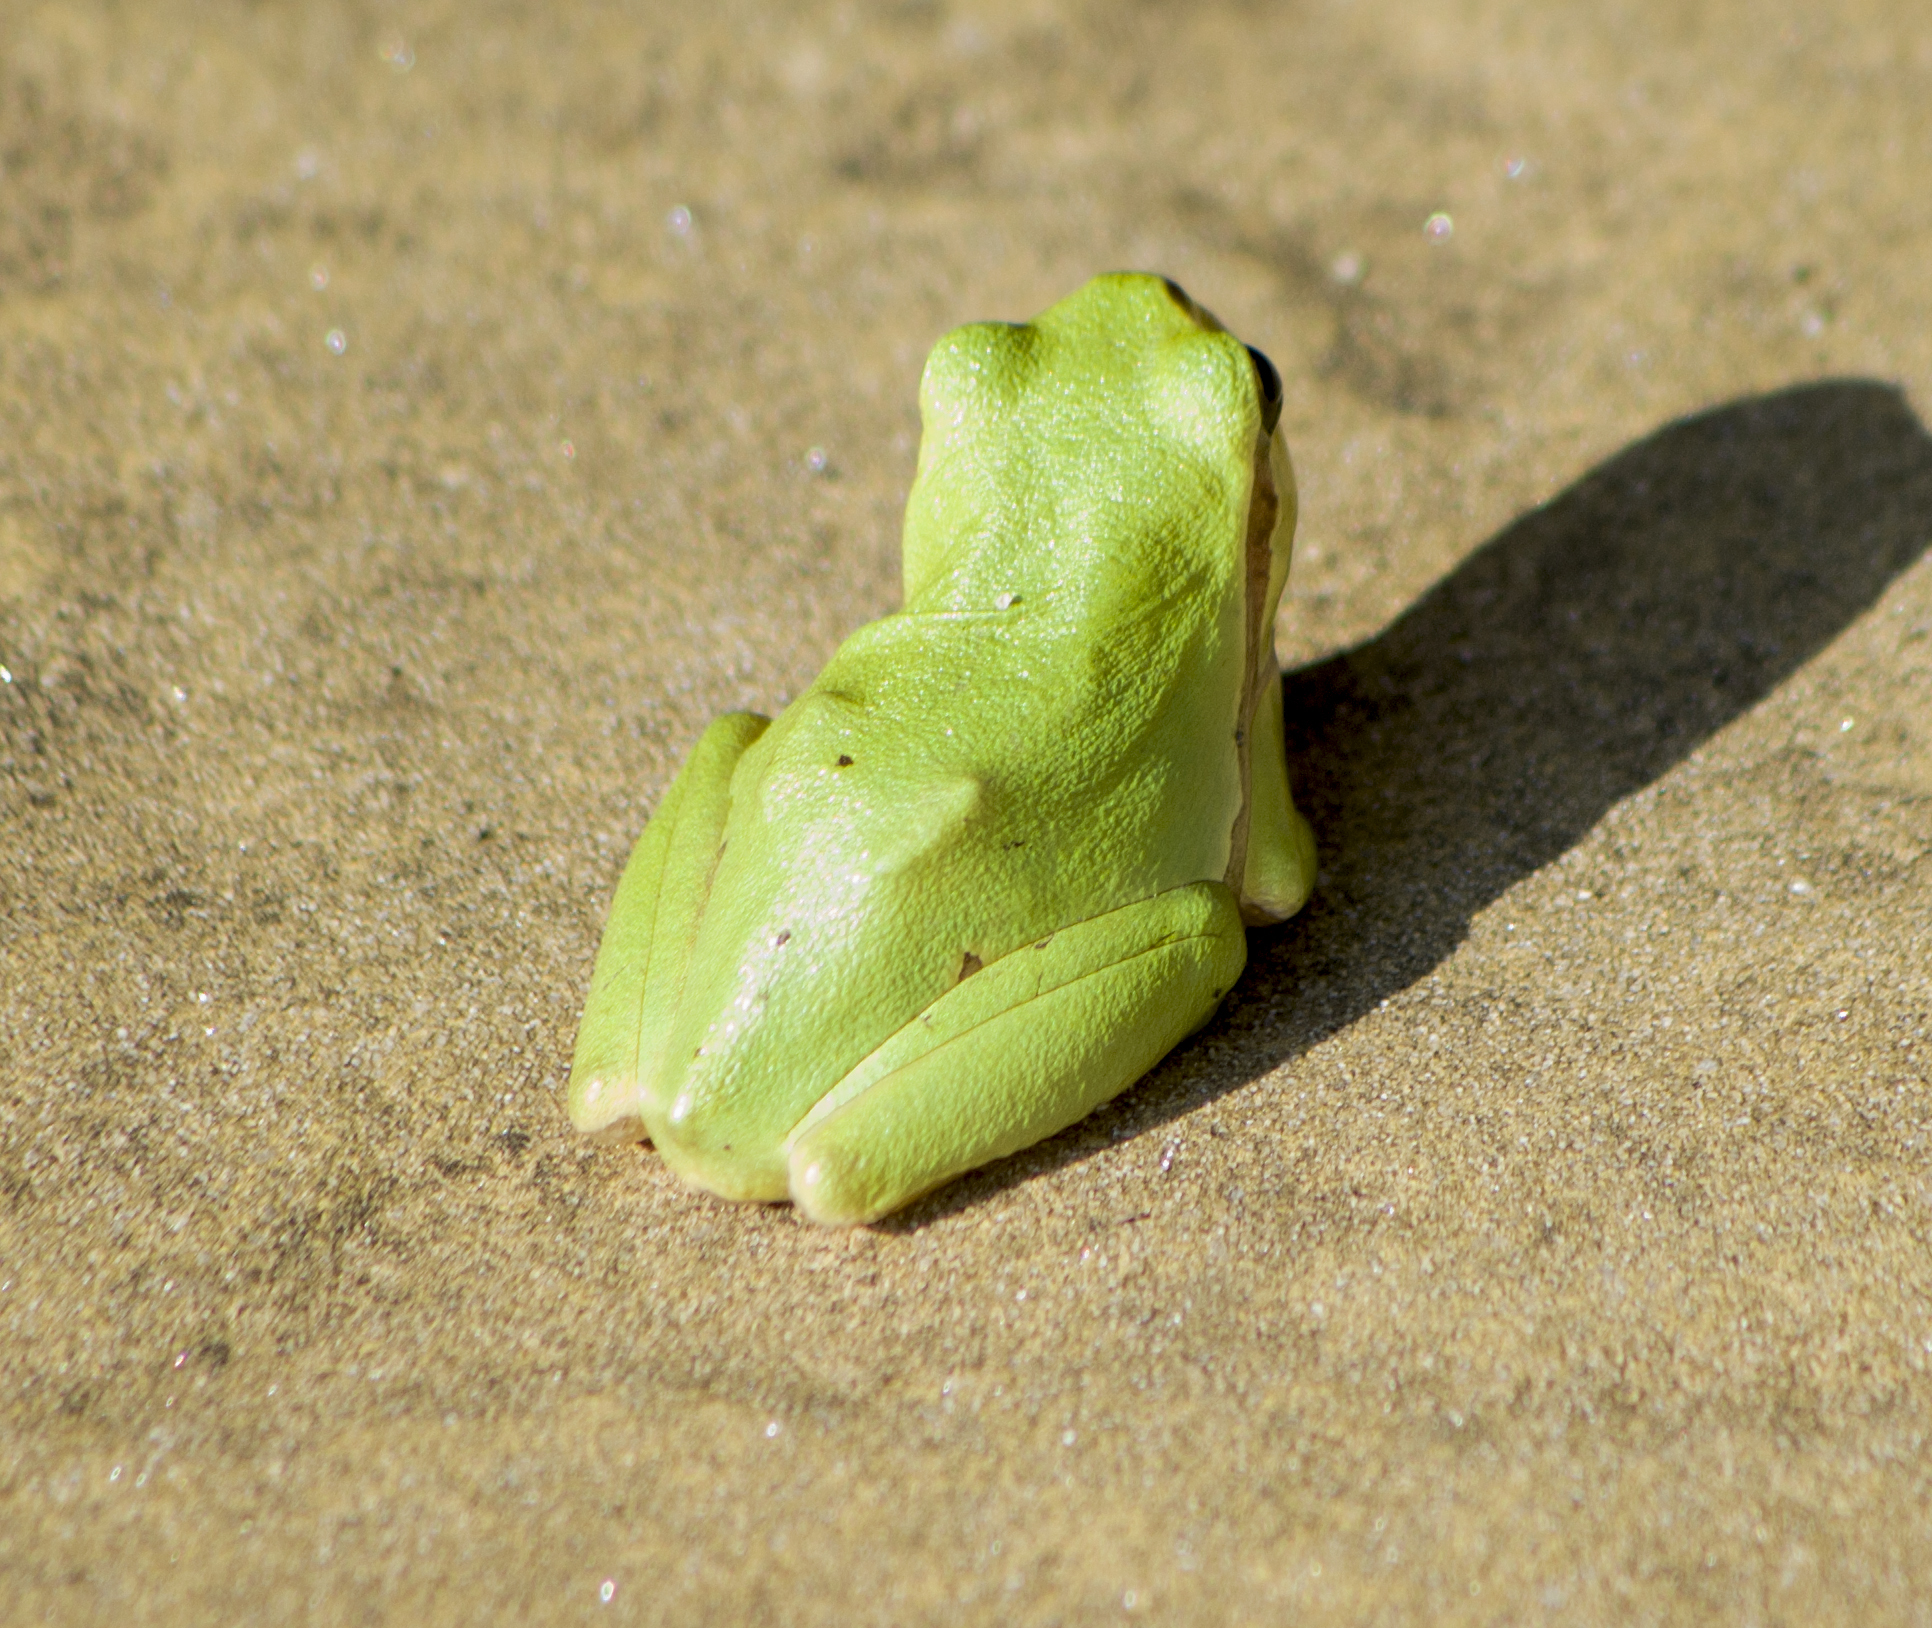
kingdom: Animalia
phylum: Chordata
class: Amphibia
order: Anura
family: Hylidae
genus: Hyla
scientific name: Hyla orientalis
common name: Caucasian treefrog
